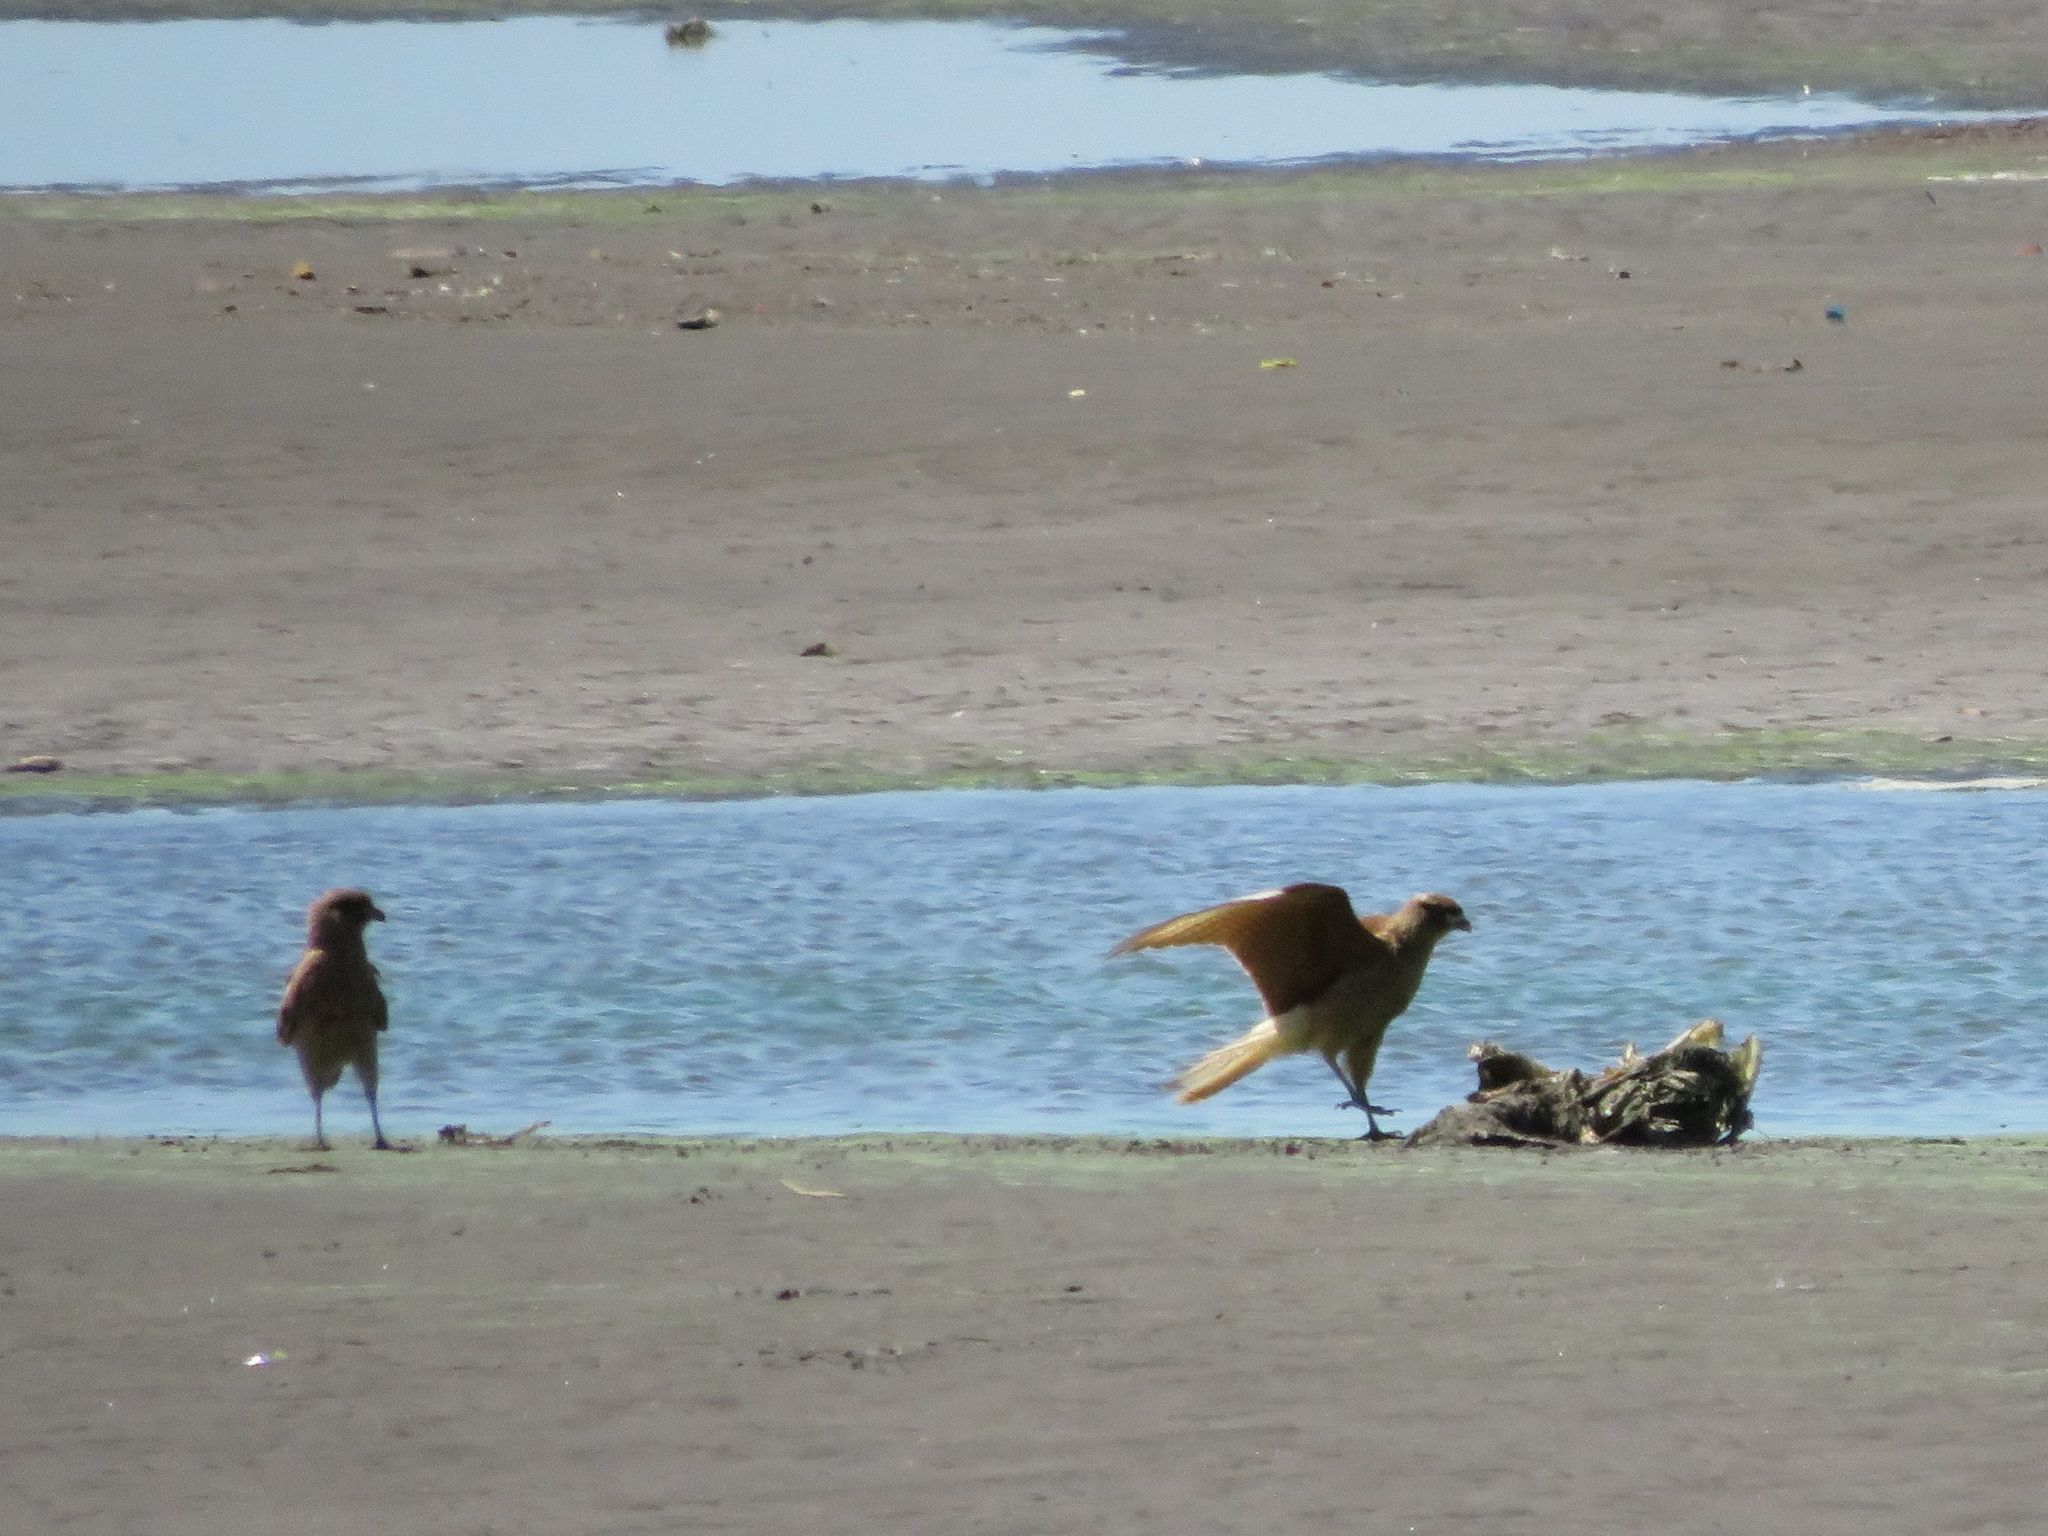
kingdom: Animalia
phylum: Chordata
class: Aves
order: Falconiformes
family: Falconidae
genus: Daptrius
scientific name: Daptrius
